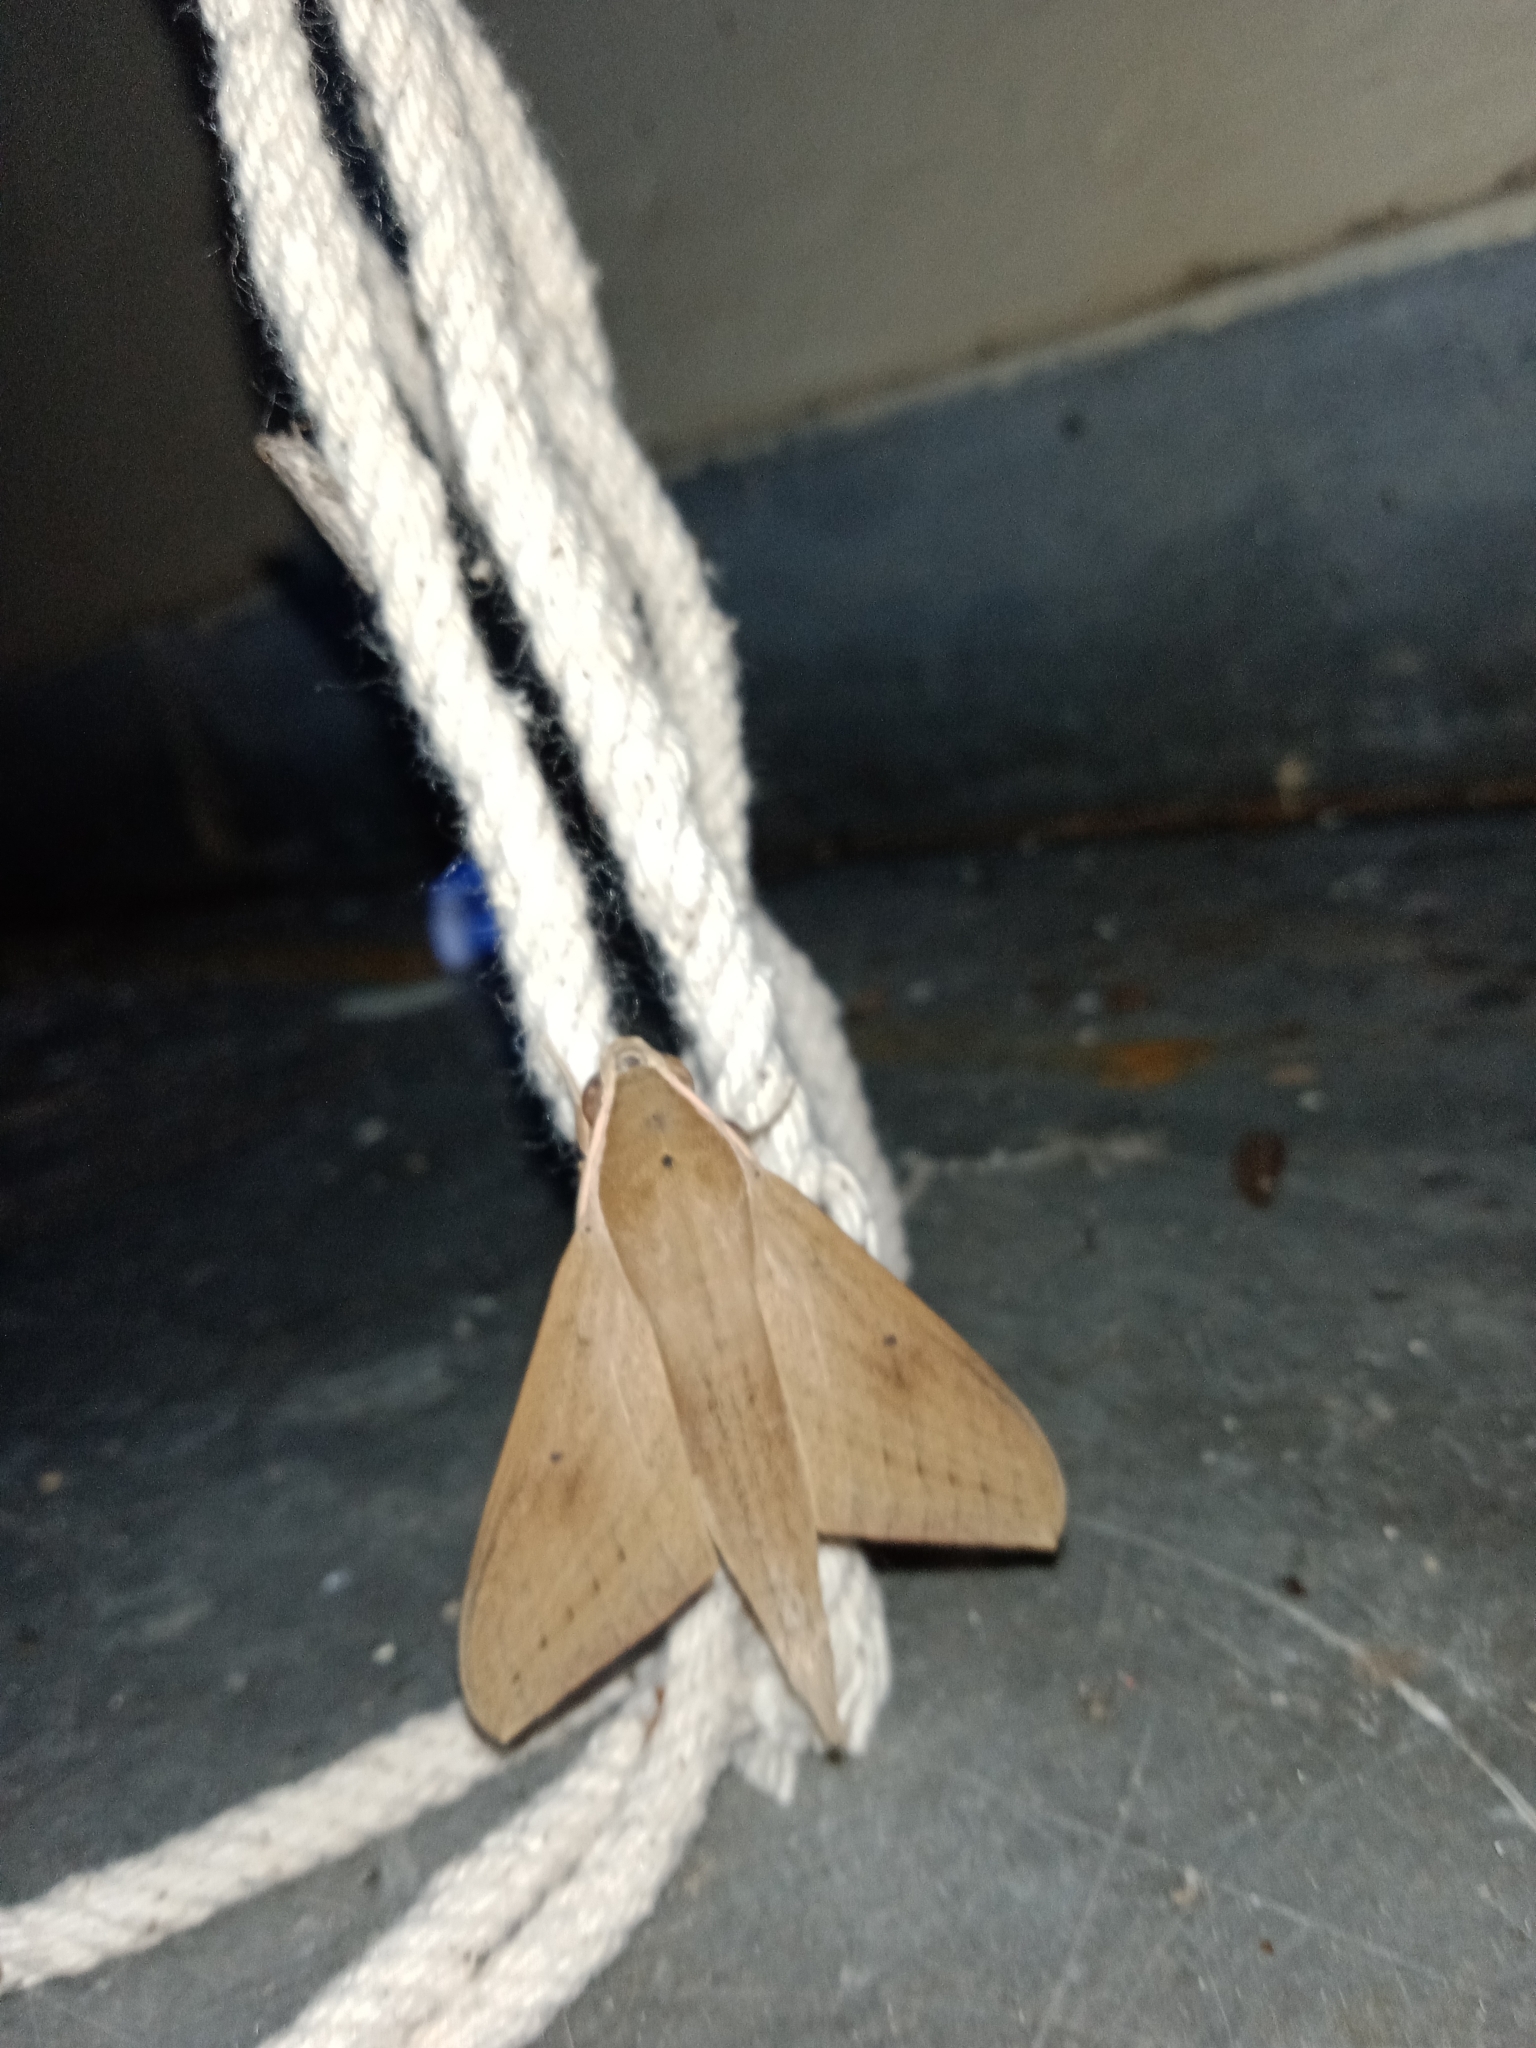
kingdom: Animalia
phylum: Arthropoda
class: Insecta
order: Lepidoptera
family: Sphingidae
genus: Theretra
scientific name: Theretra rhesus
